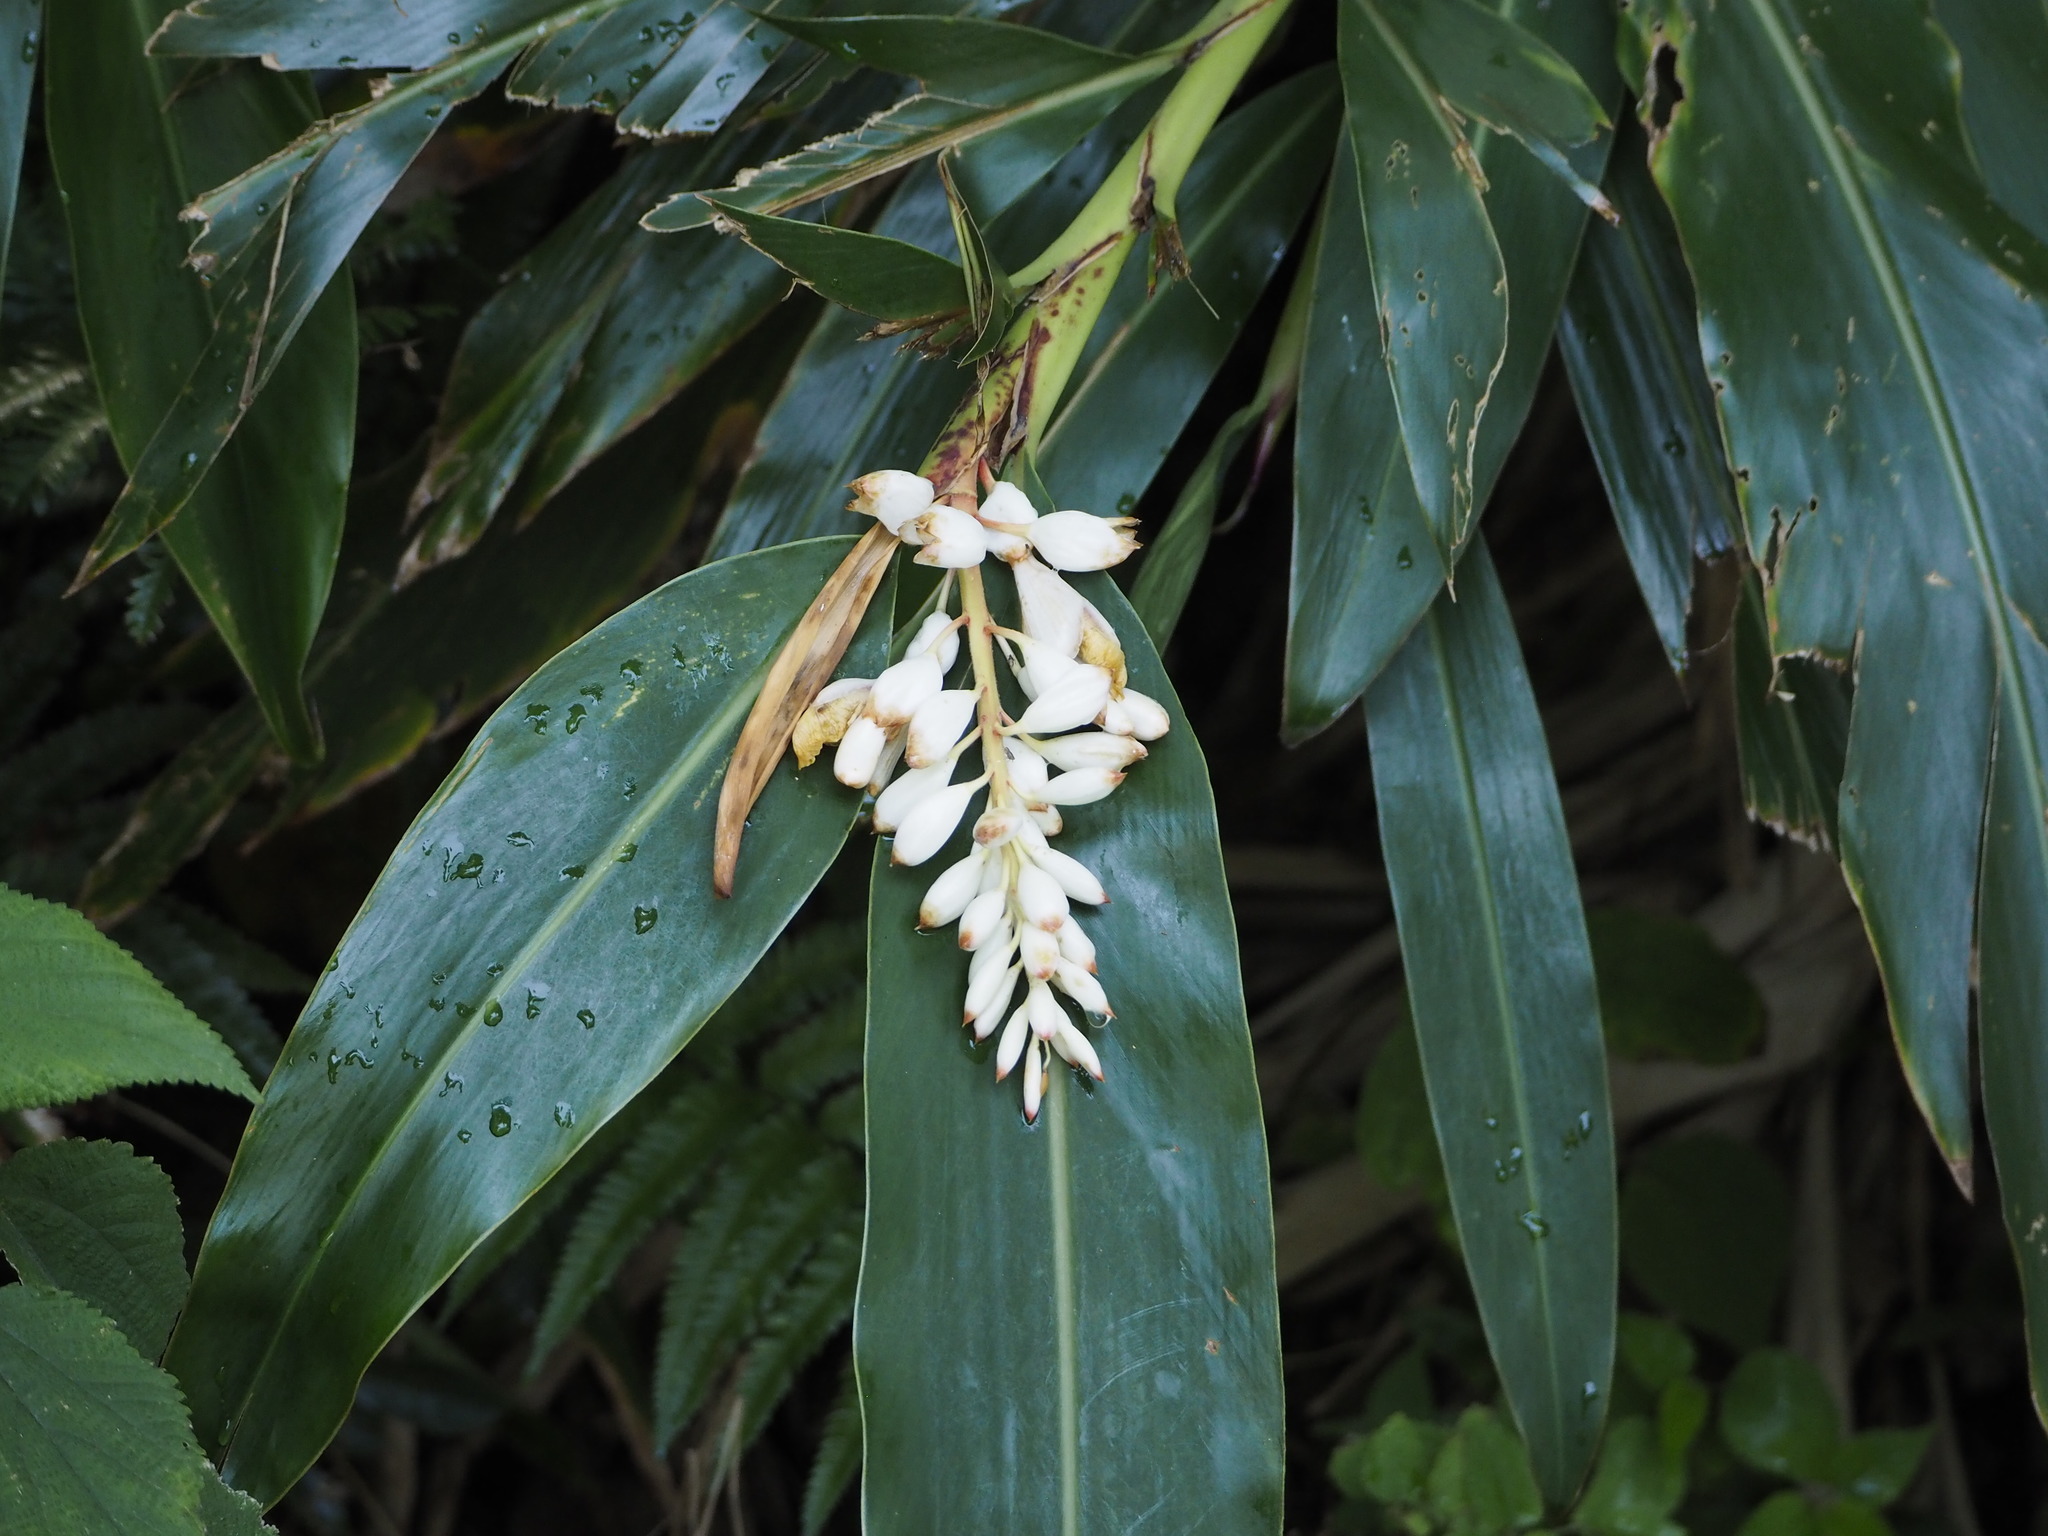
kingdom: Plantae
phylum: Tracheophyta
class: Liliopsida
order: Zingiberales
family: Zingiberaceae
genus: Alpinia
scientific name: Alpinia zerumbet
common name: Shellplant
